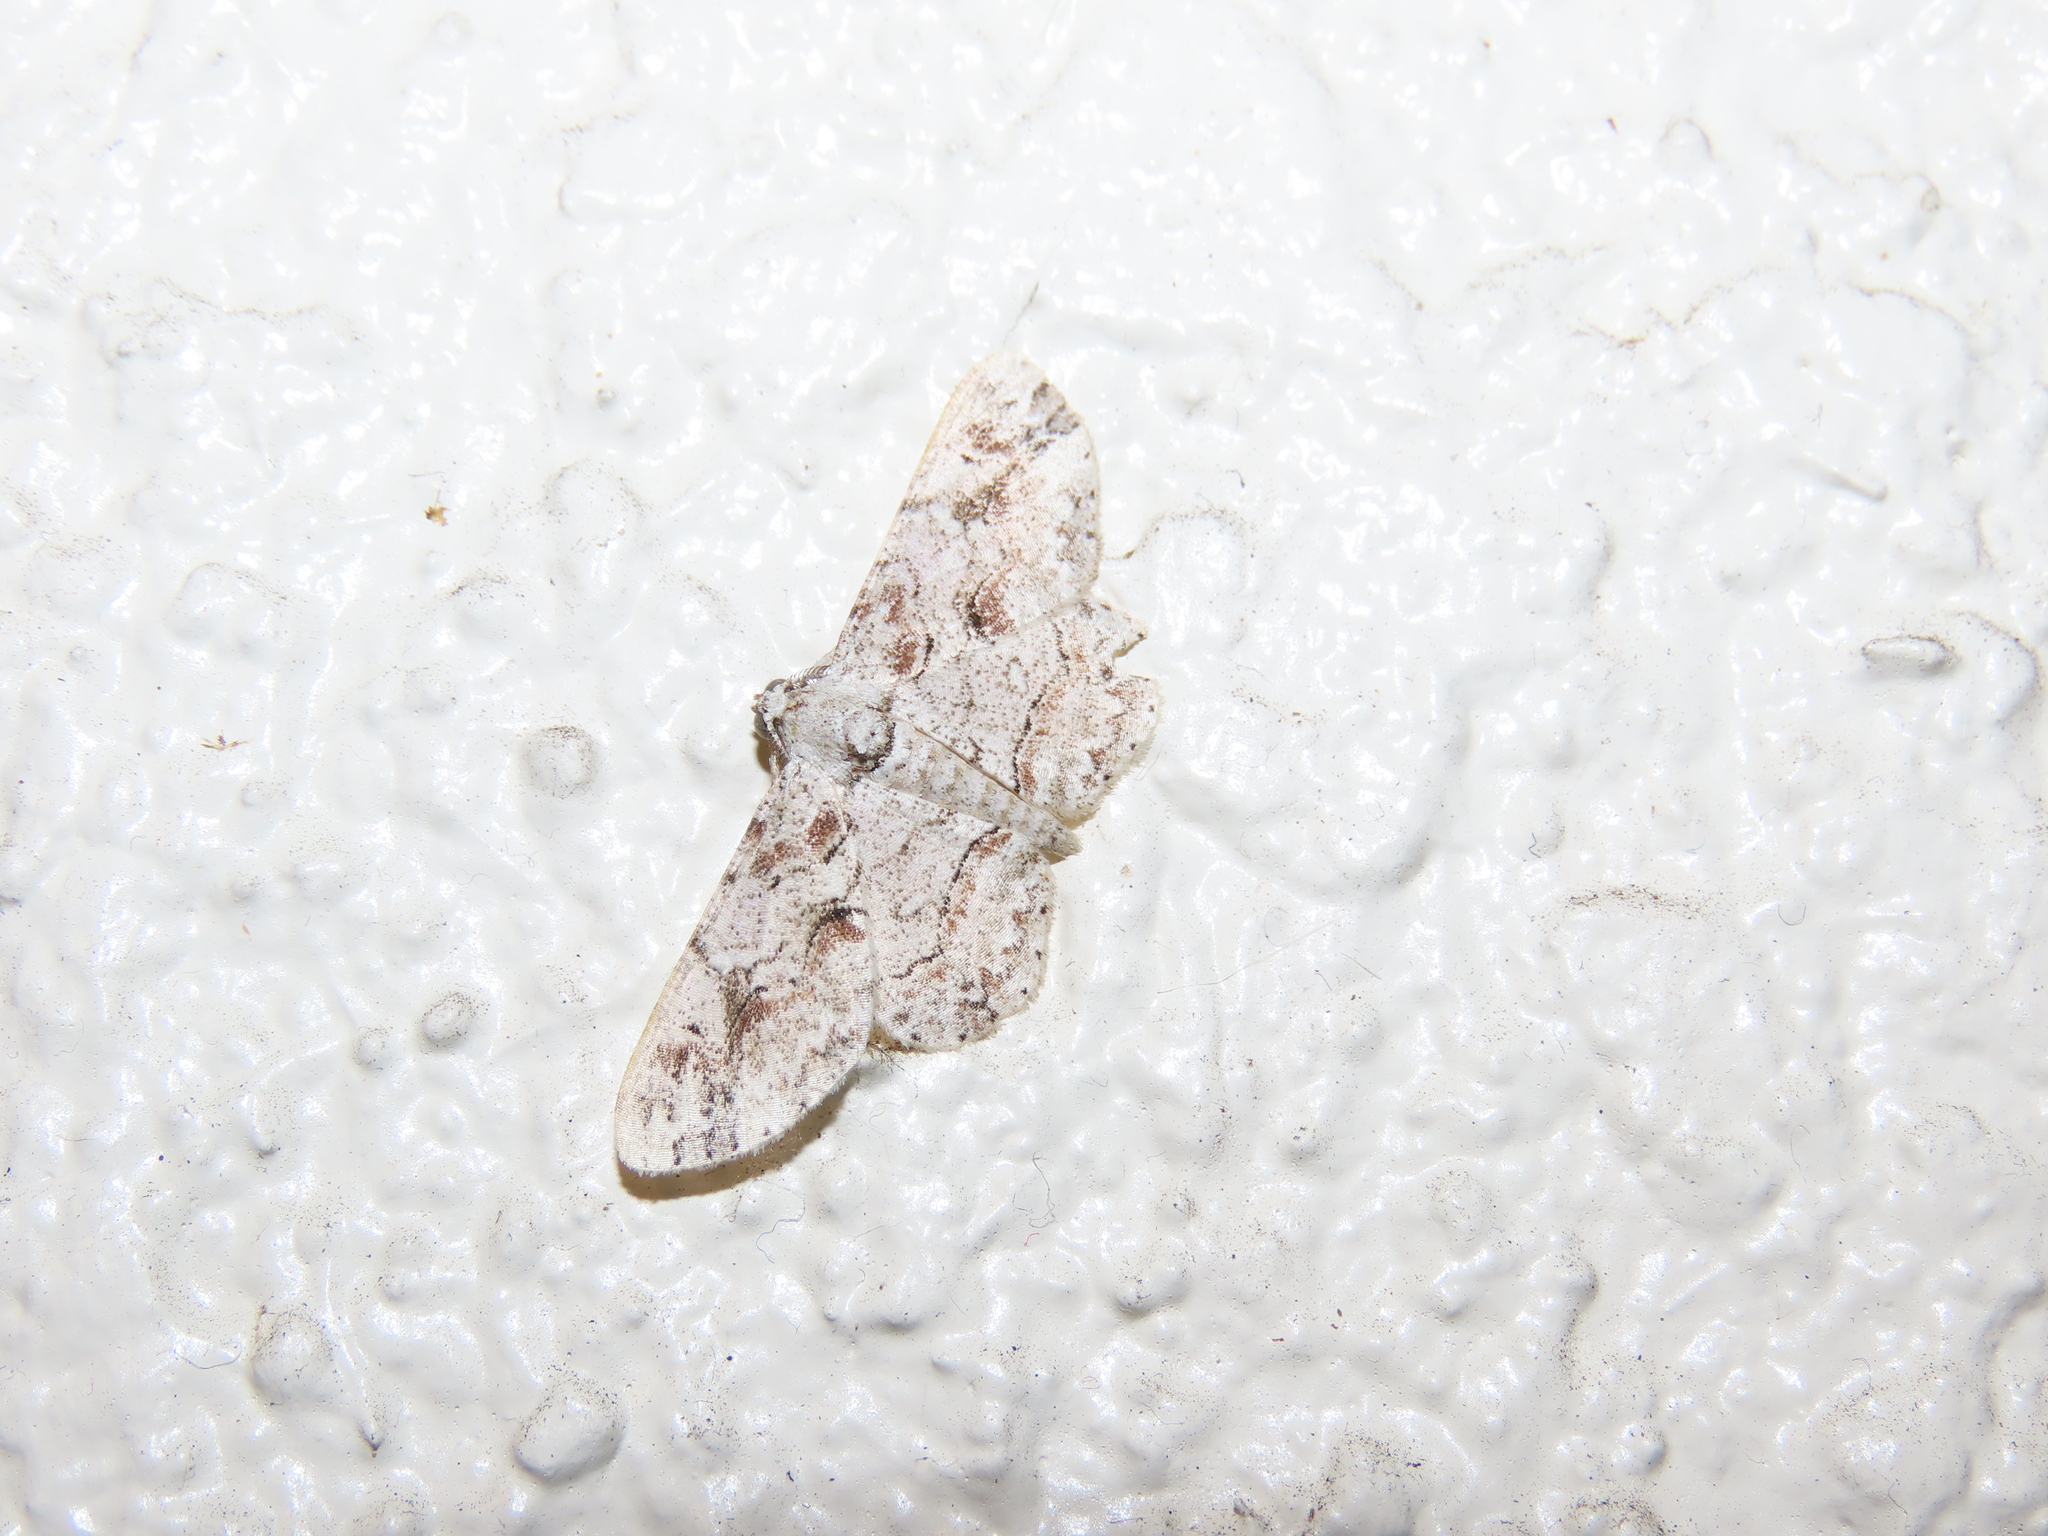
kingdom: Animalia
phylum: Arthropoda
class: Insecta
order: Lepidoptera
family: Geometridae
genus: Iridopsis
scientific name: Iridopsis defectaria
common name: Brown-shaded gray
